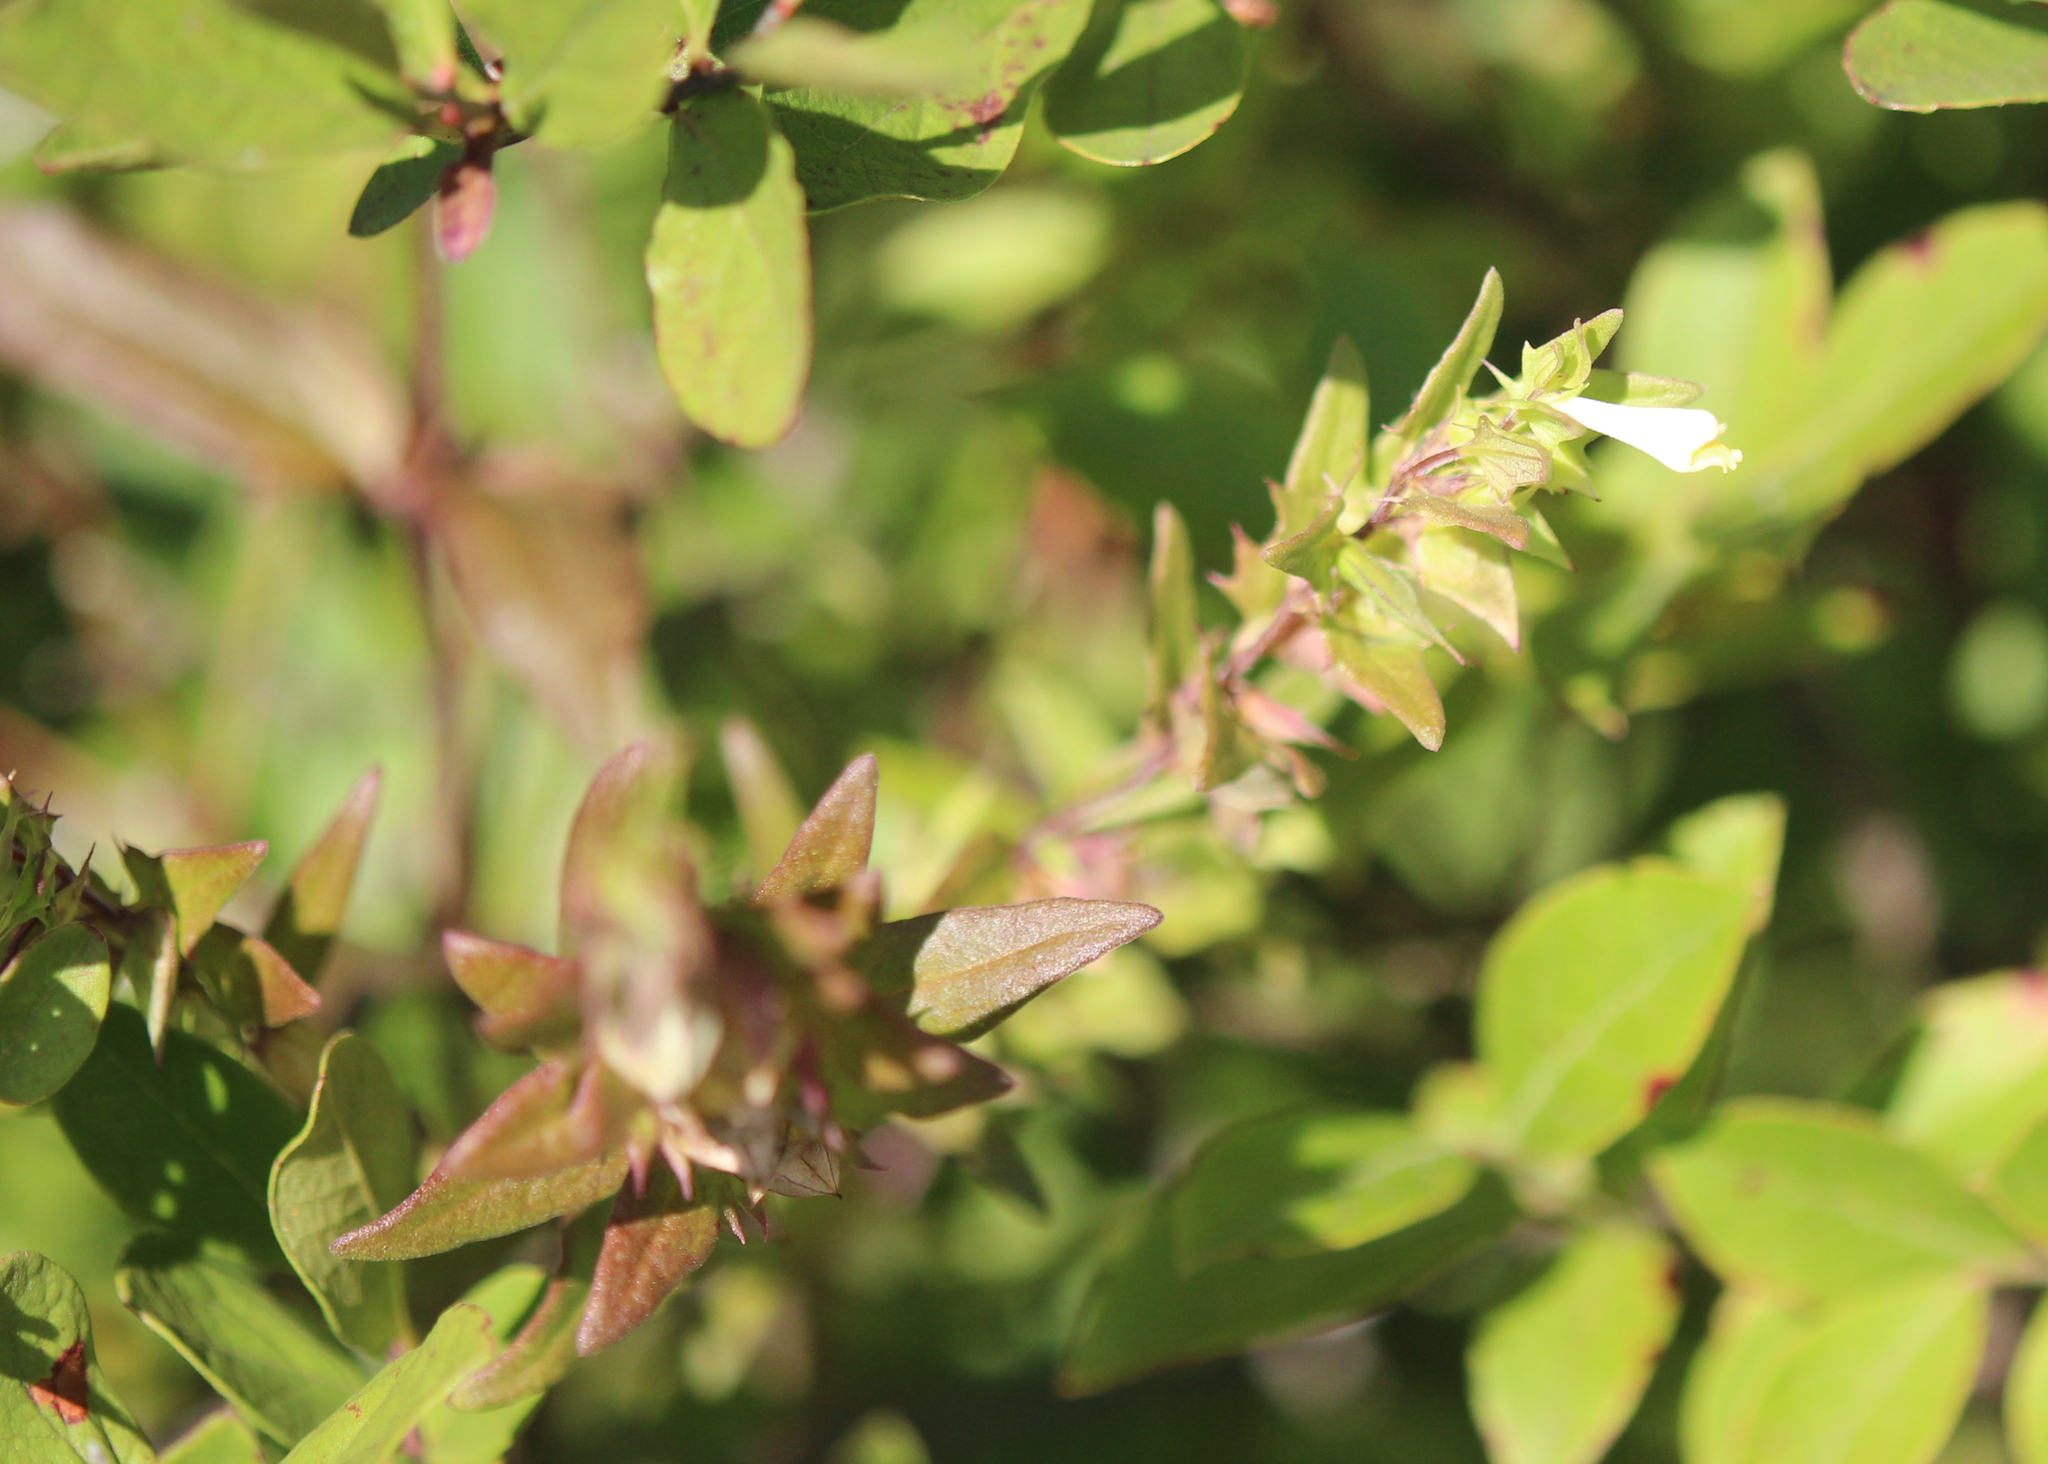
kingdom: Plantae
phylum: Tracheophyta
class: Magnoliopsida
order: Lamiales
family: Orobanchaceae
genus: Melampyrum
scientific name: Melampyrum lineare
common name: American cow-wheat
